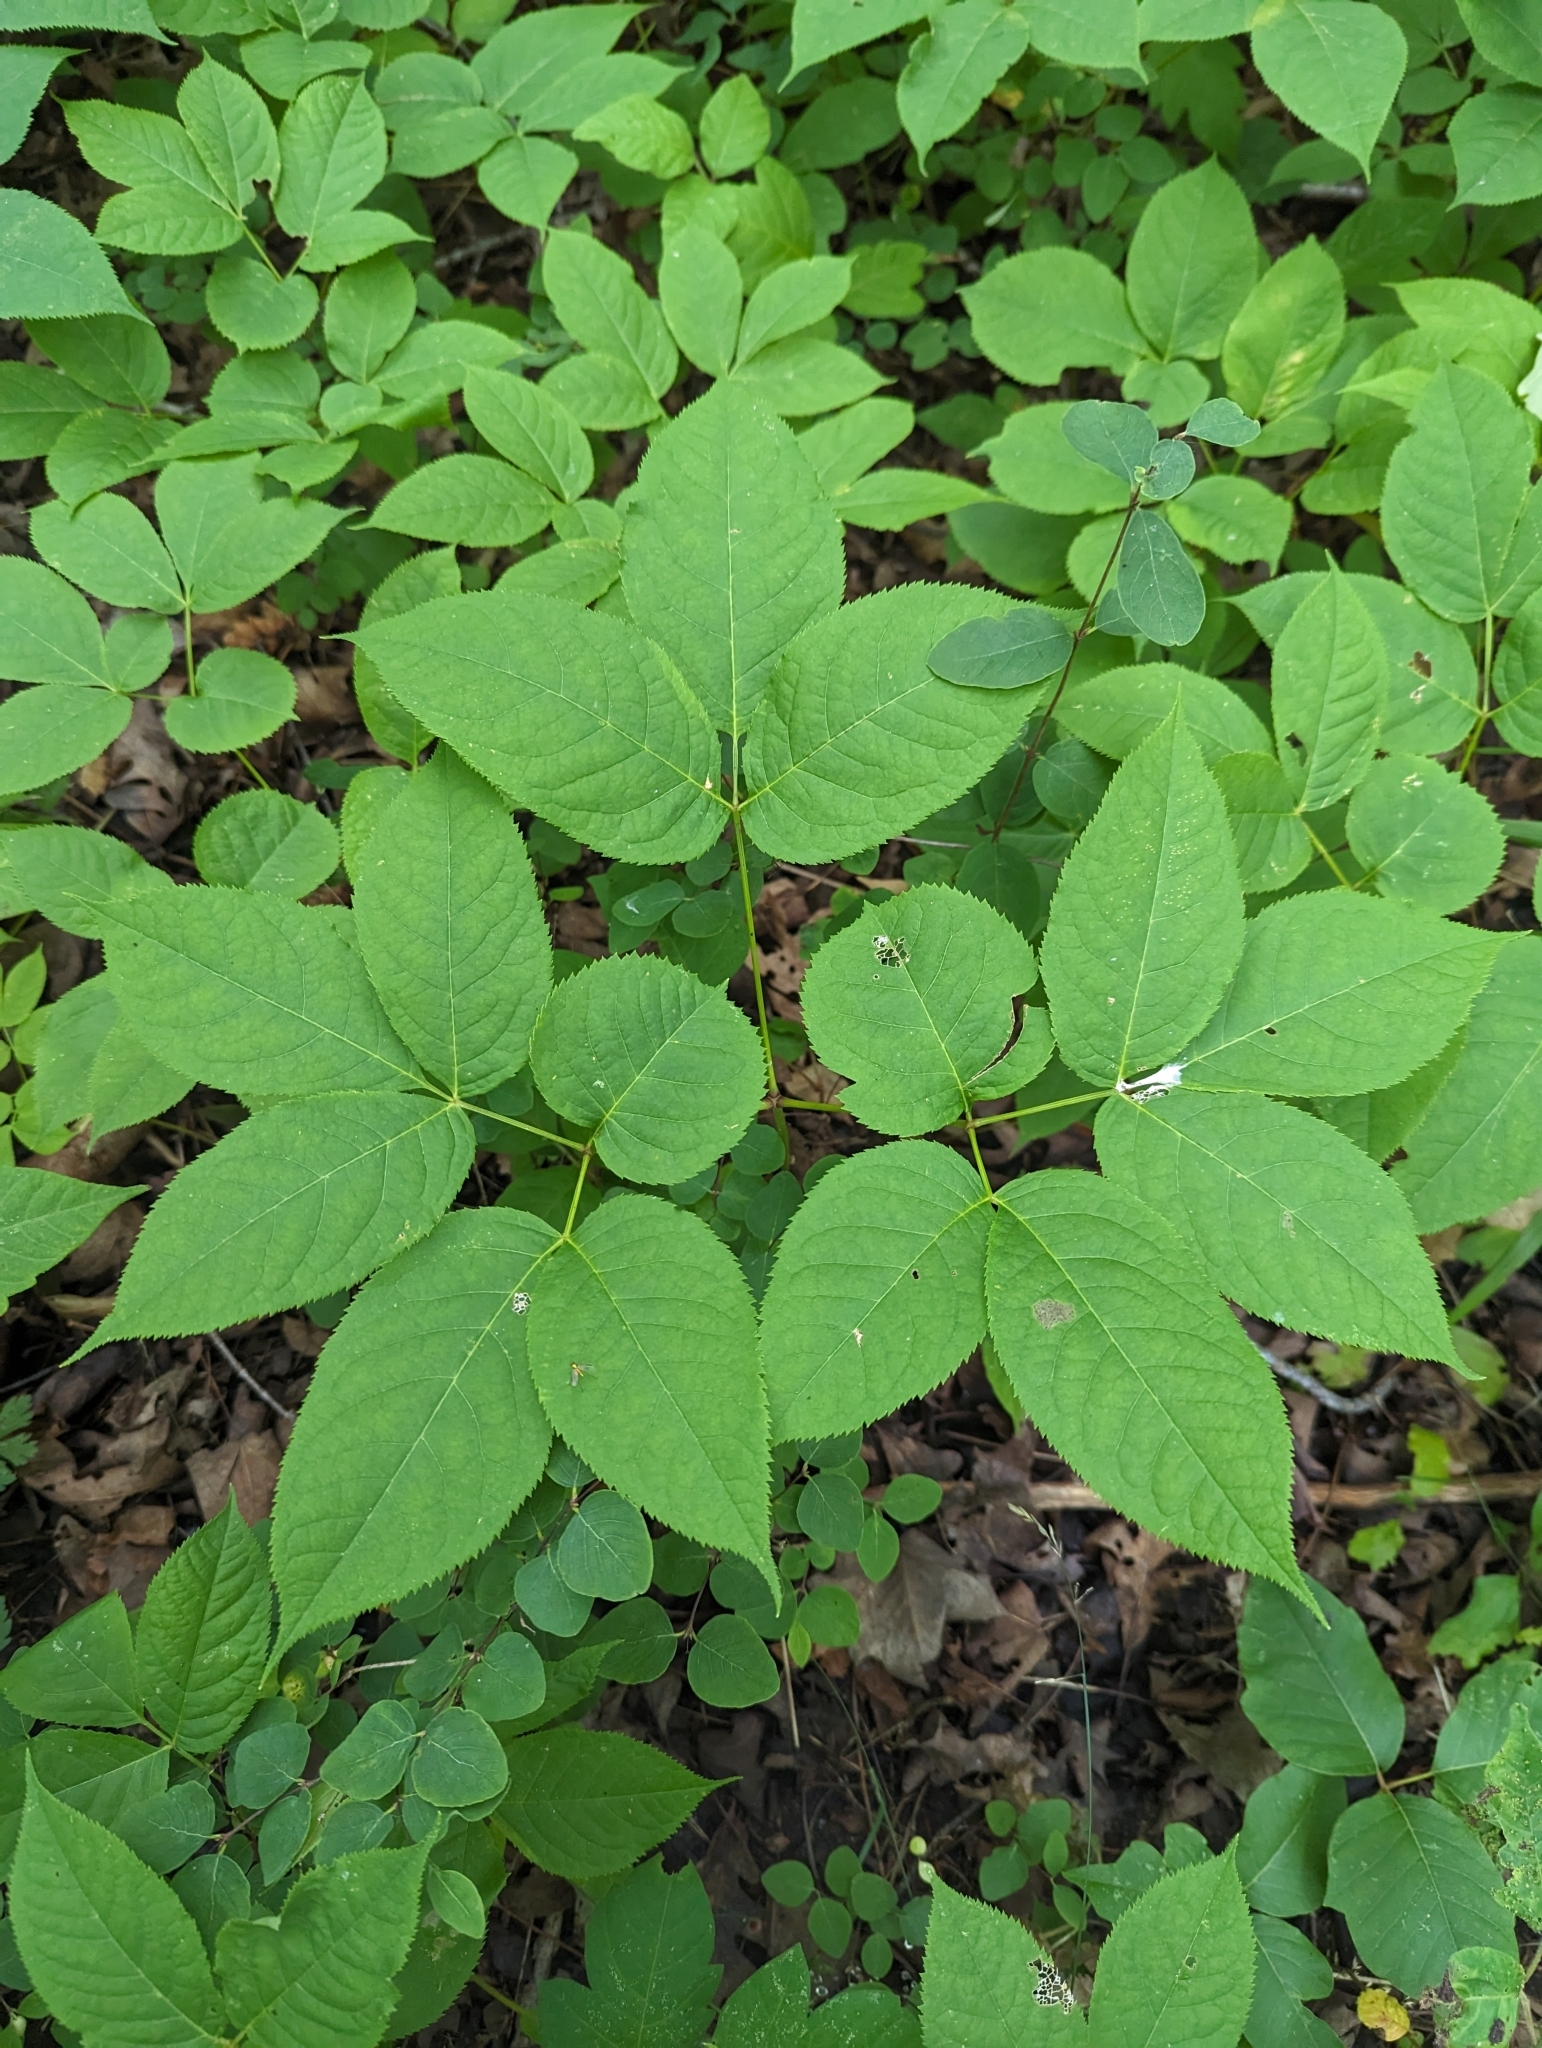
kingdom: Plantae
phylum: Tracheophyta
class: Magnoliopsida
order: Apiales
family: Araliaceae
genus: Aralia
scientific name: Aralia nudicaulis
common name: Wild sarsaparilla
